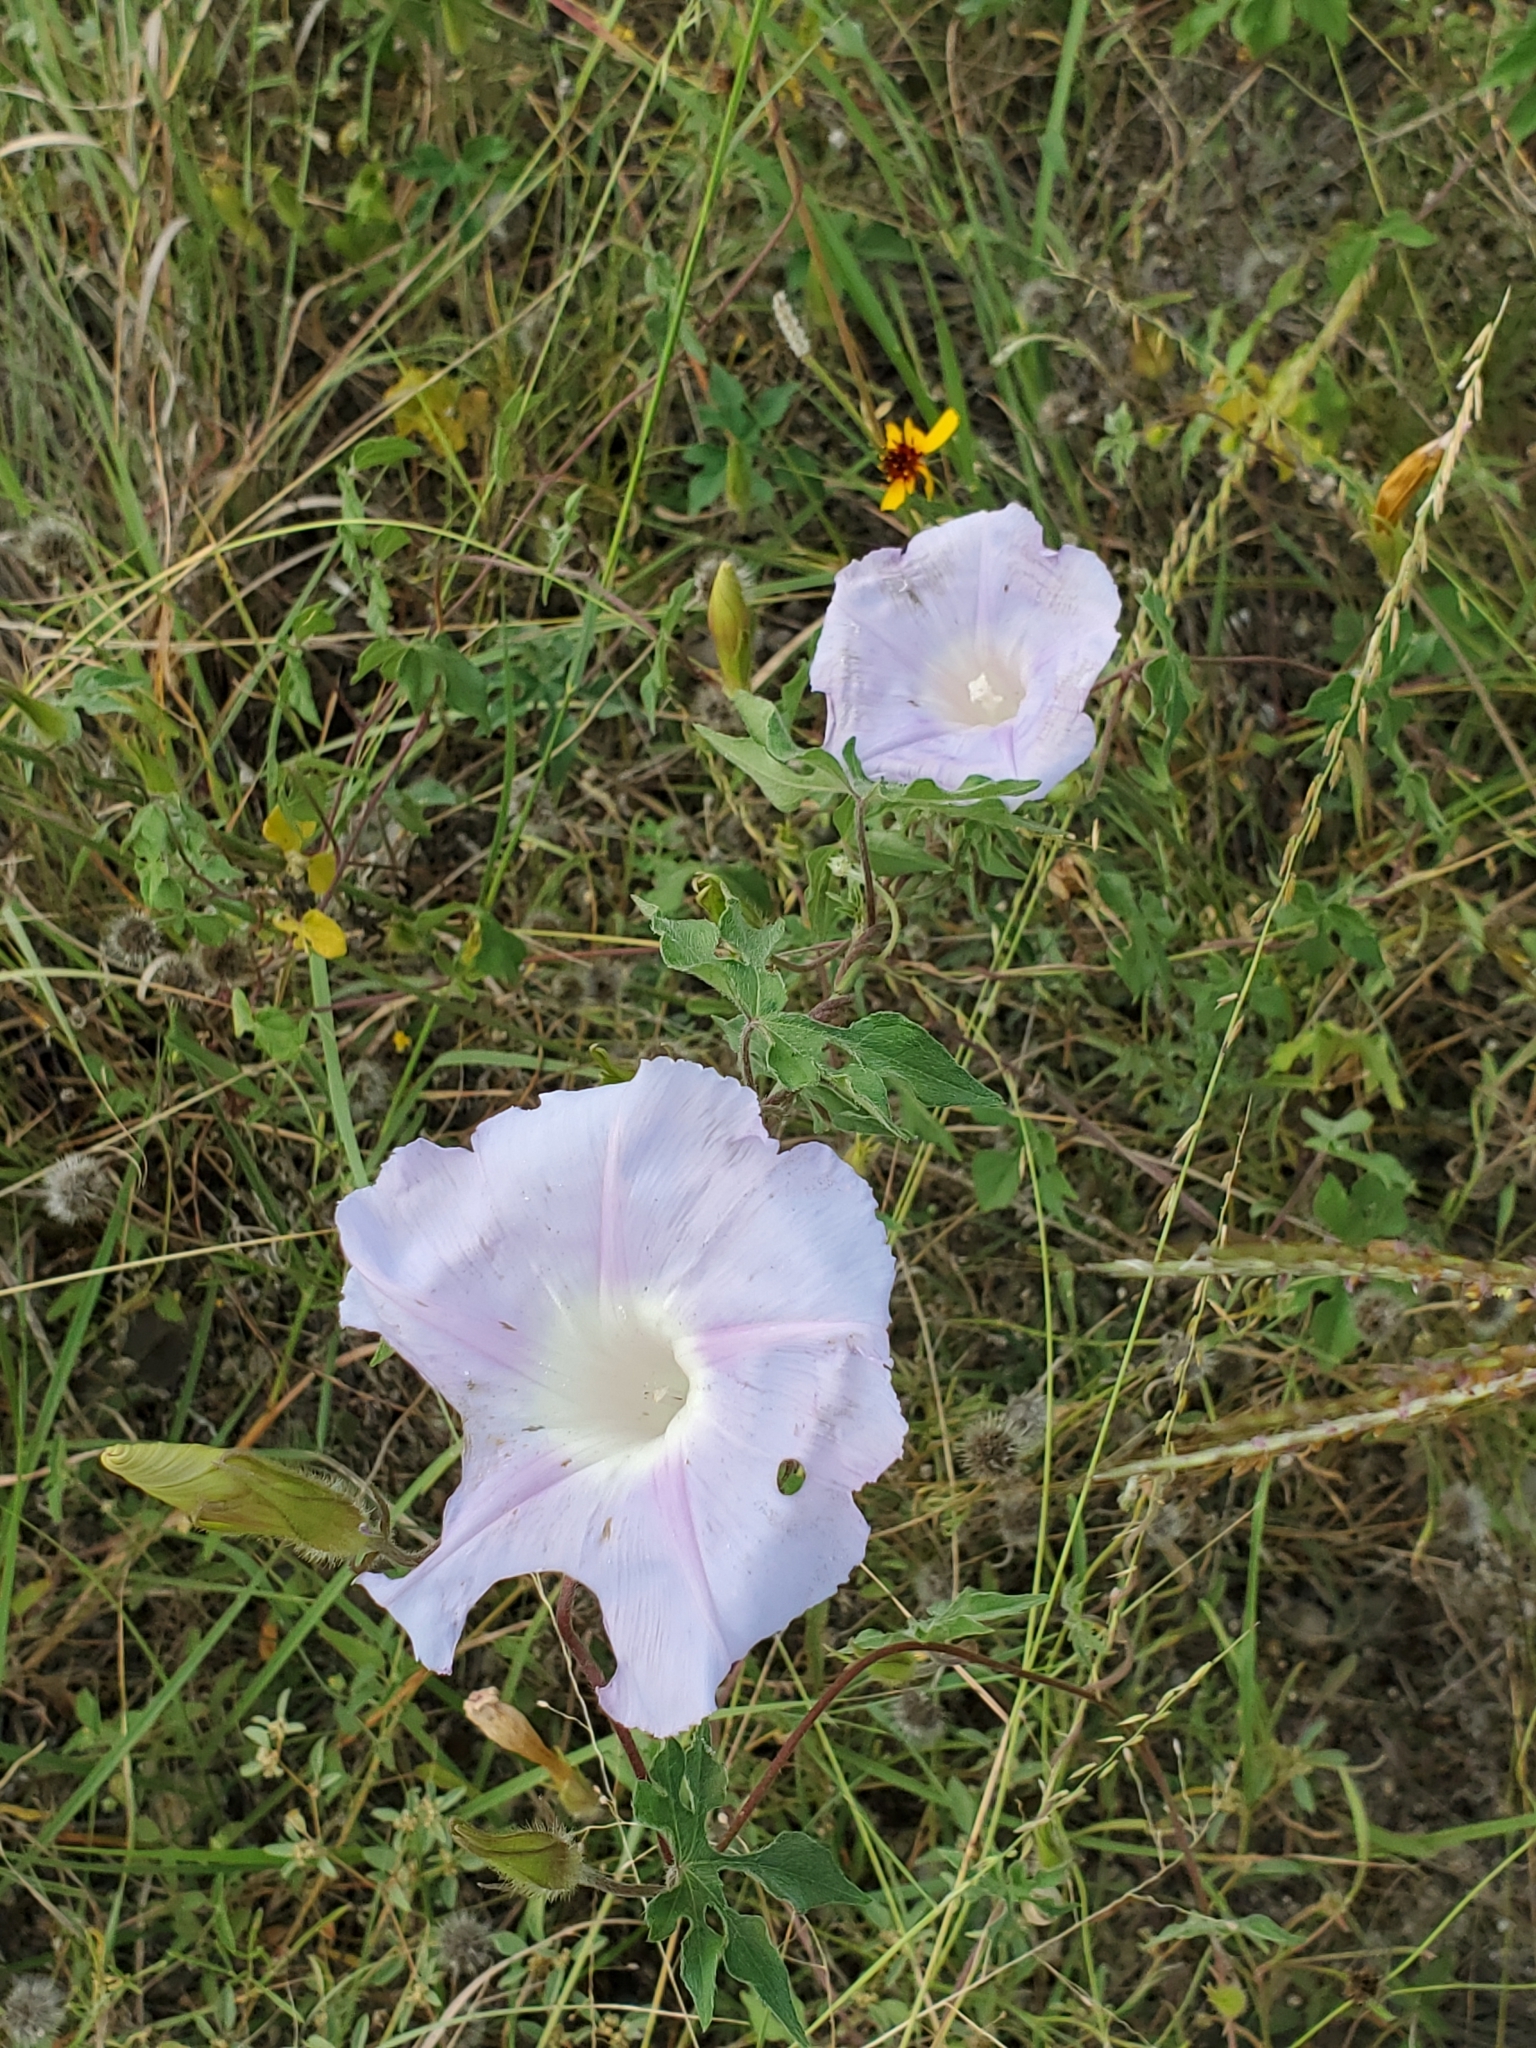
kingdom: Plantae
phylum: Tracheophyta
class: Magnoliopsida
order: Solanales
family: Convolvulaceae
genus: Ipomoea
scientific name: Ipomoea lindheimeri
